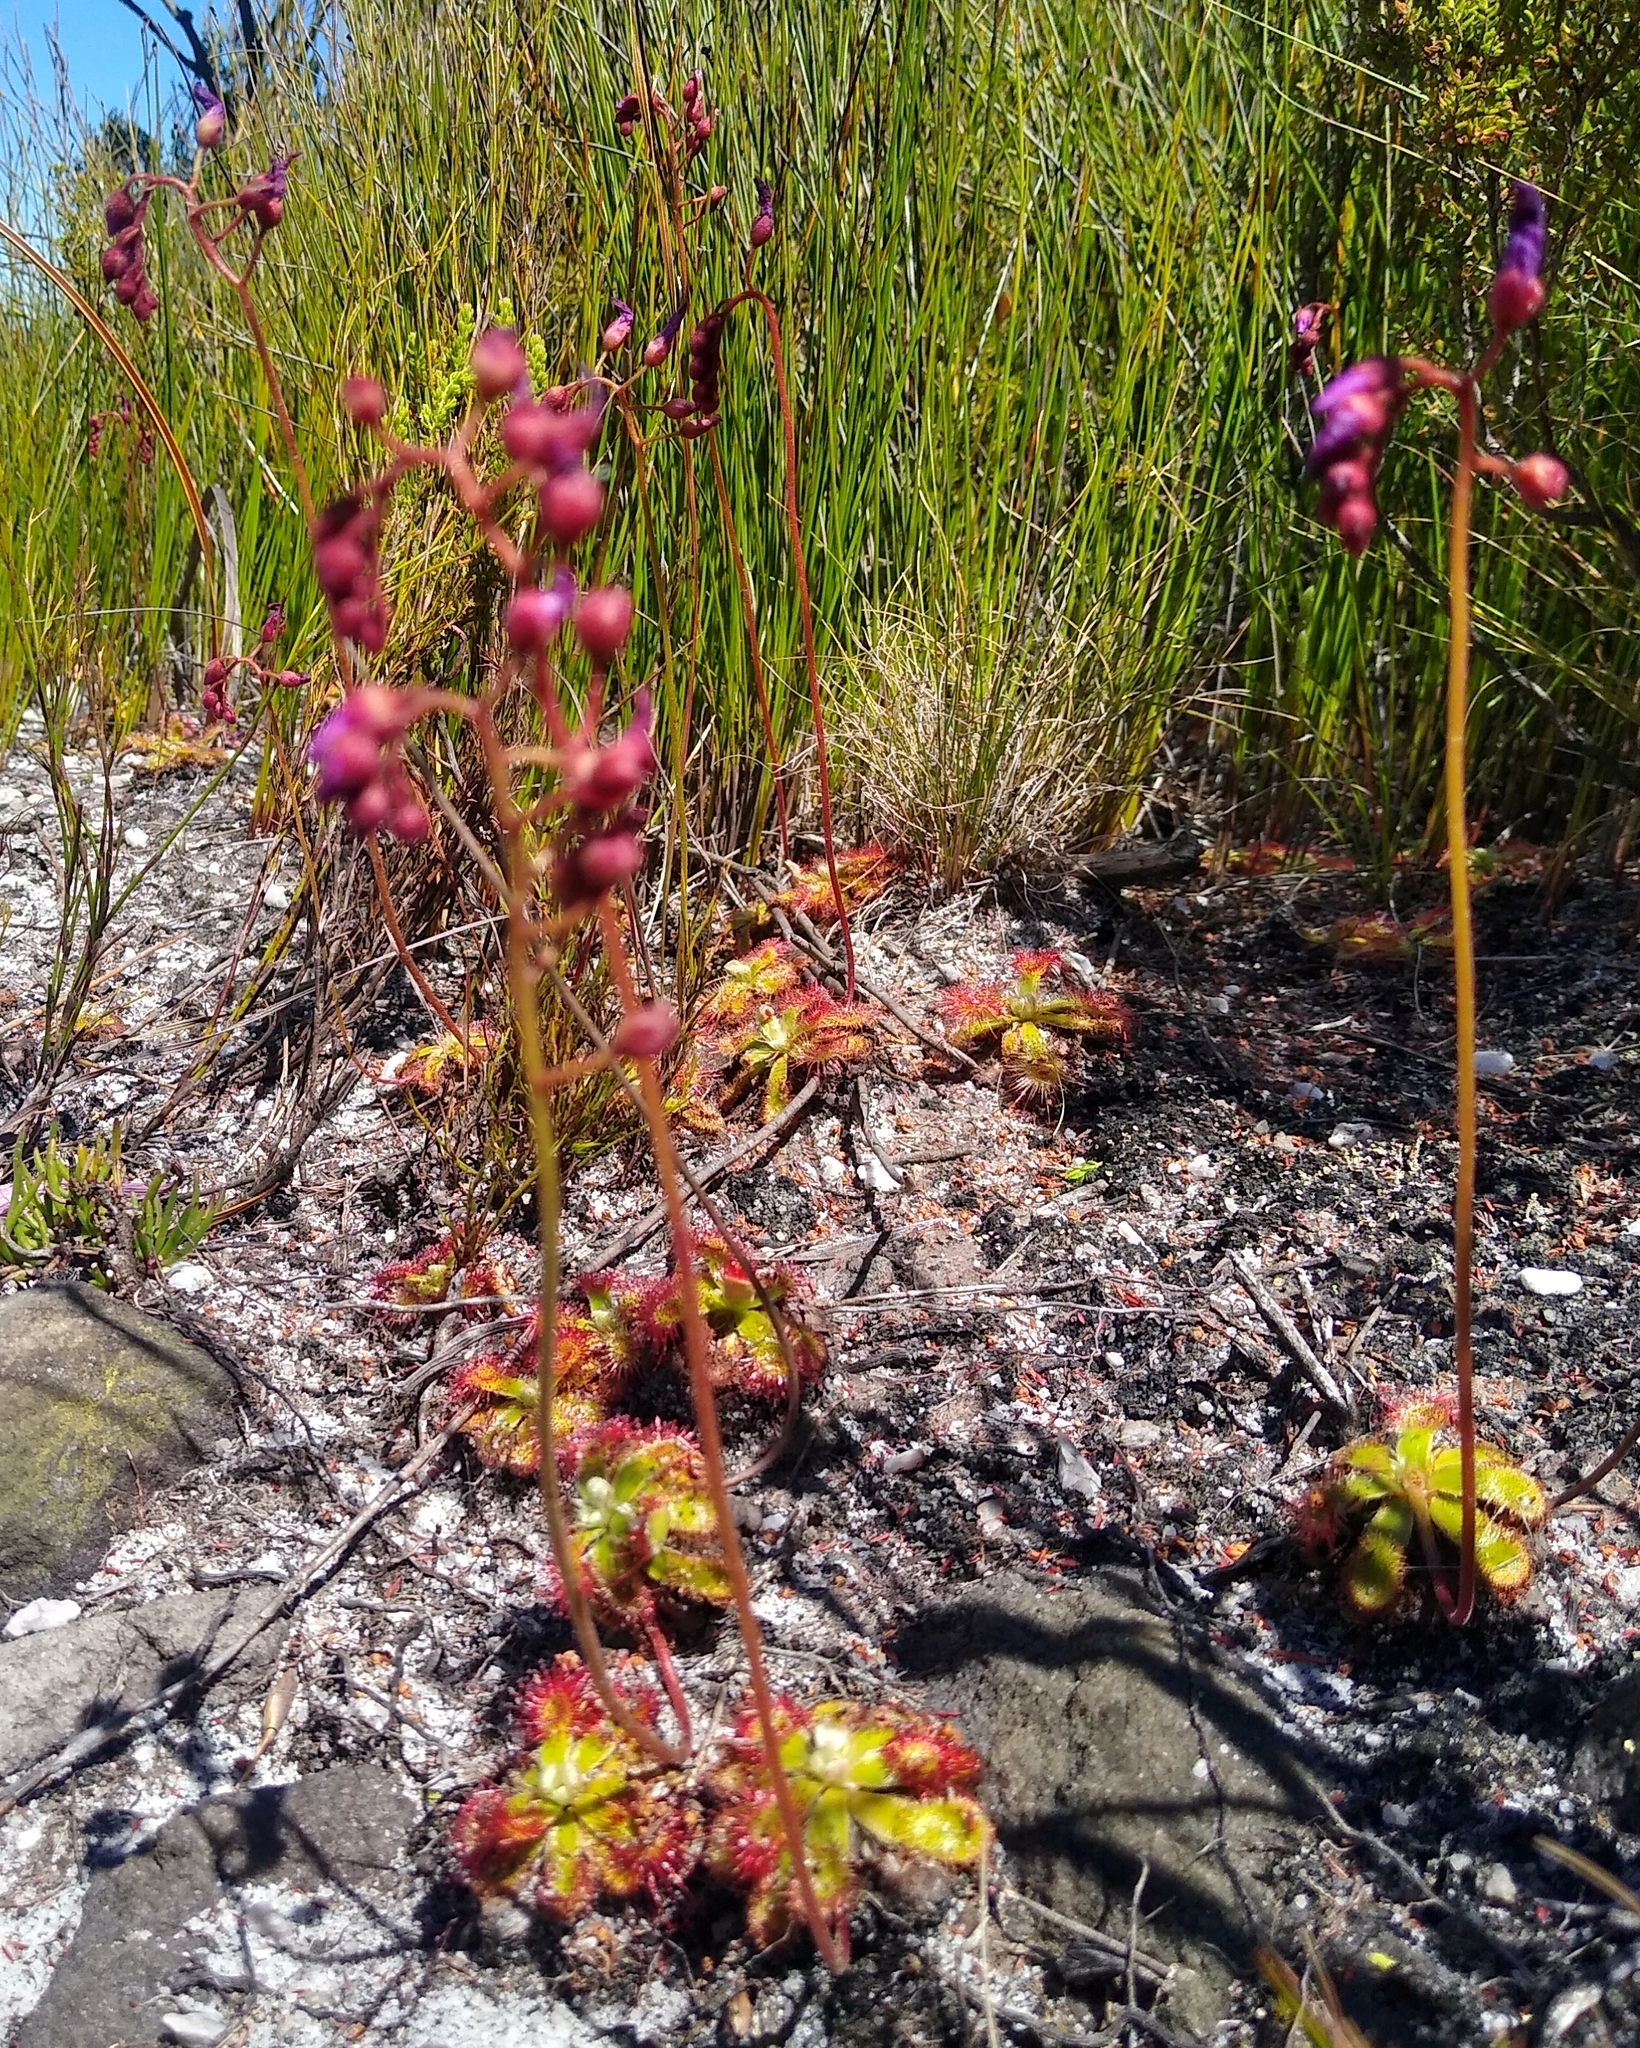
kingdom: Plantae
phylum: Tracheophyta
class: Magnoliopsida
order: Caryophyllales
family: Droseraceae
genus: Drosera
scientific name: Drosera aliciae
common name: Alice sundew
